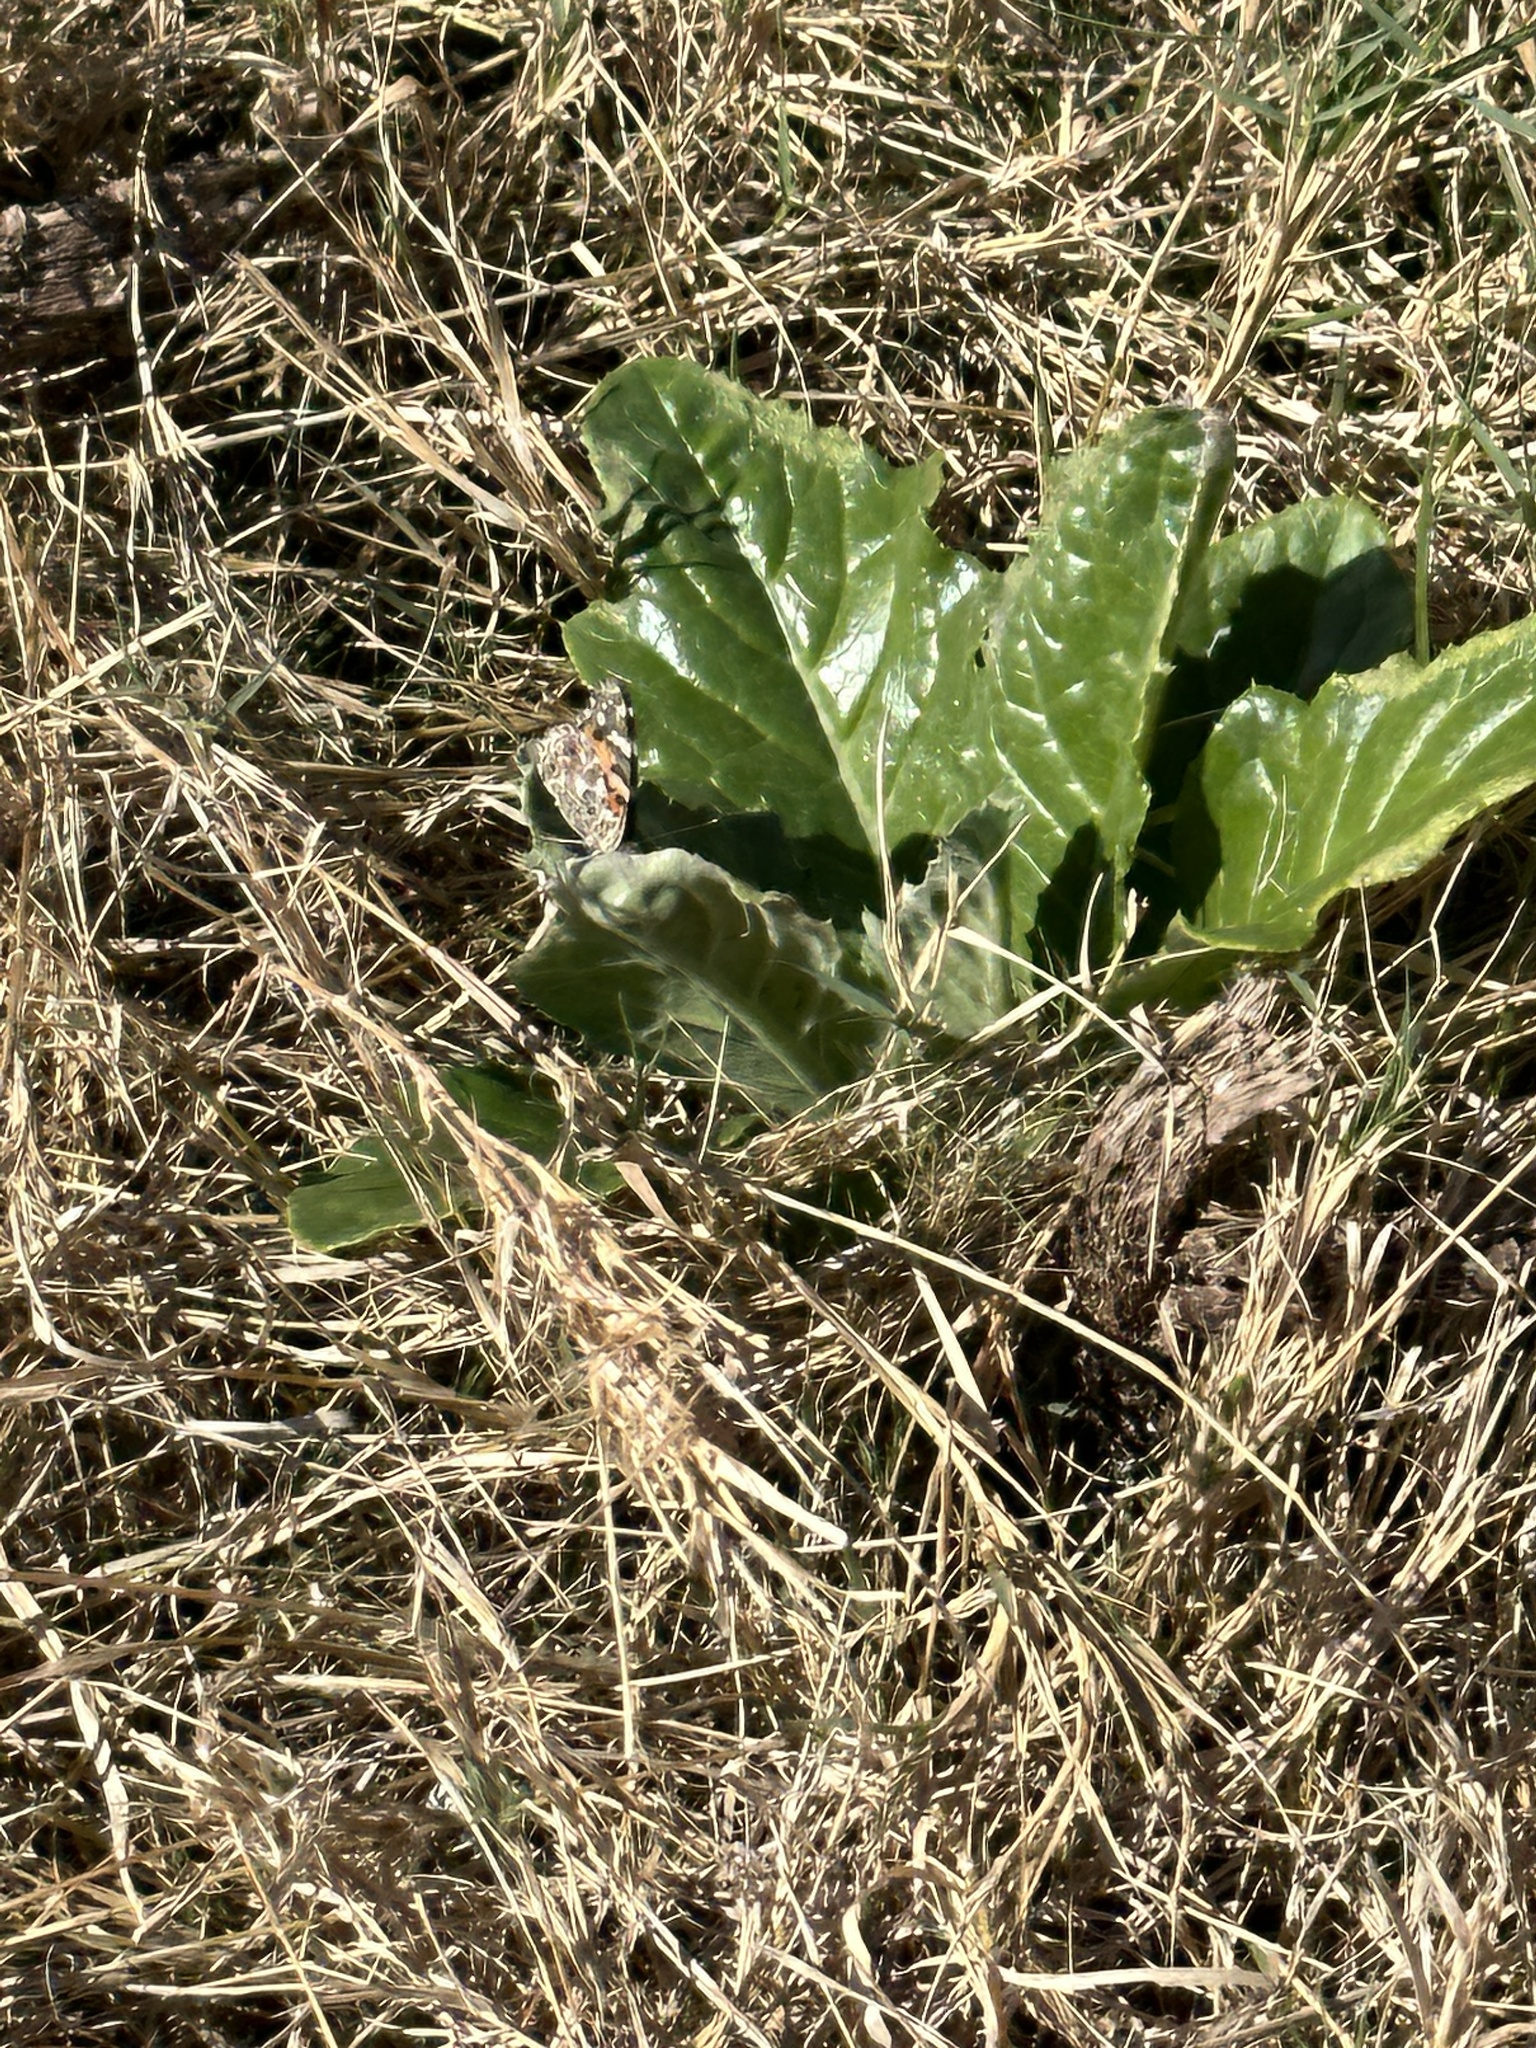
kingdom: Animalia
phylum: Arthropoda
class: Insecta
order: Lepidoptera
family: Nymphalidae
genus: Vanessa
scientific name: Vanessa cardui
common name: Painted lady
